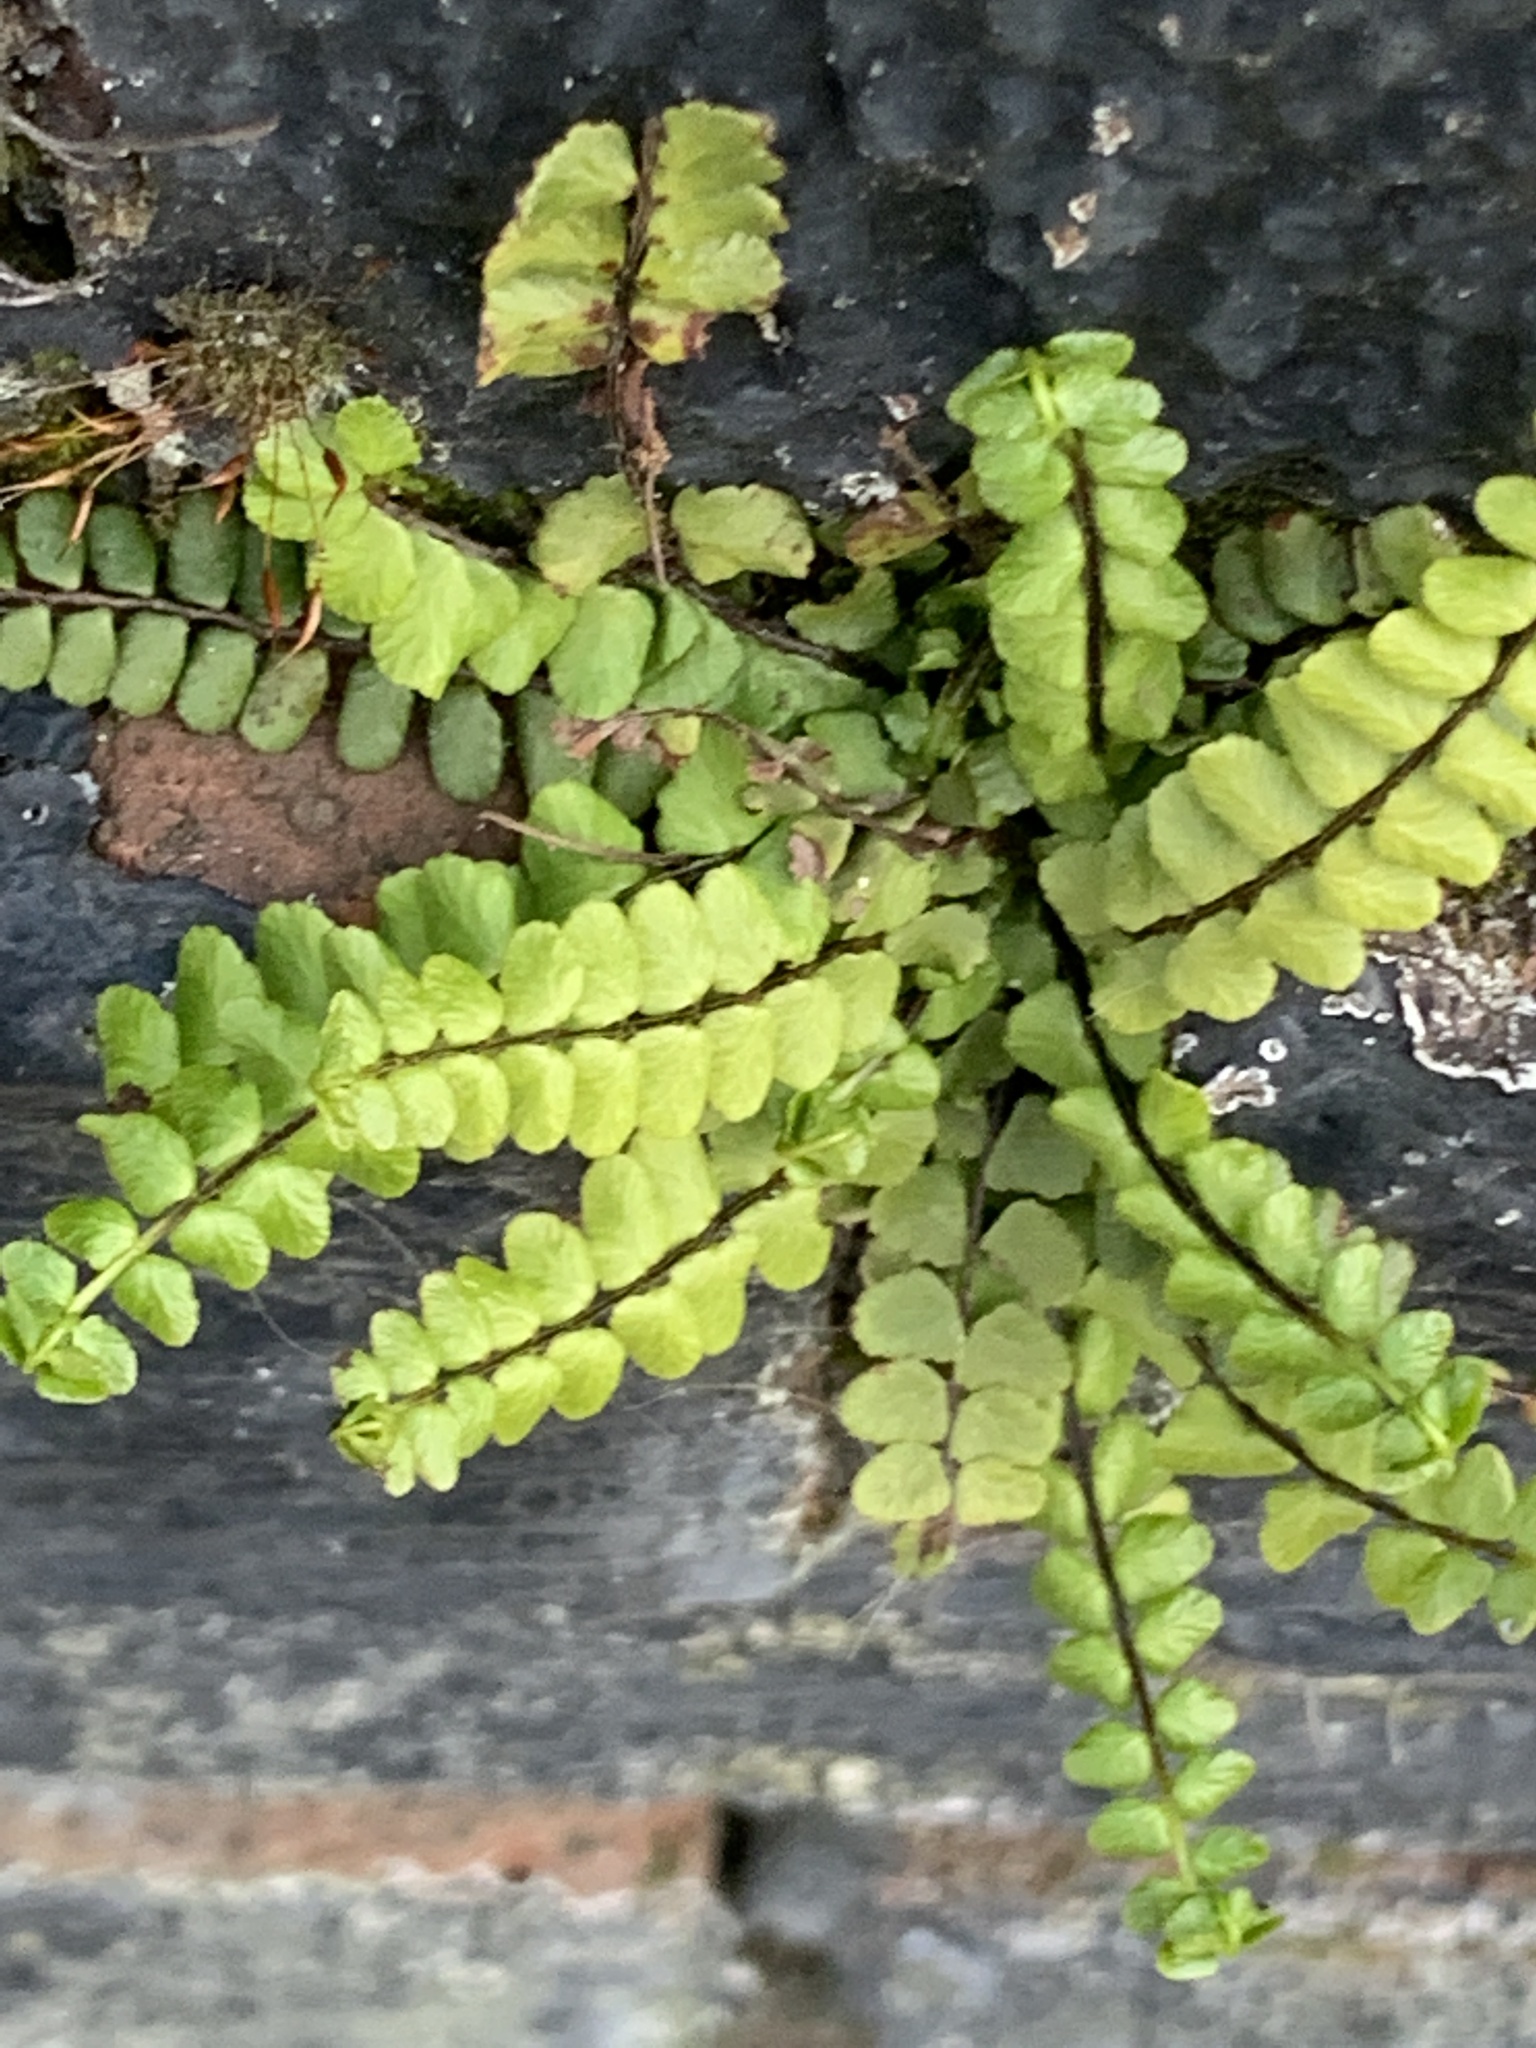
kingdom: Plantae
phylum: Tracheophyta
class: Polypodiopsida
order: Polypodiales
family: Aspleniaceae
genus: Asplenium
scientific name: Asplenium trichomanes
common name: Maidenhair spleenwort
